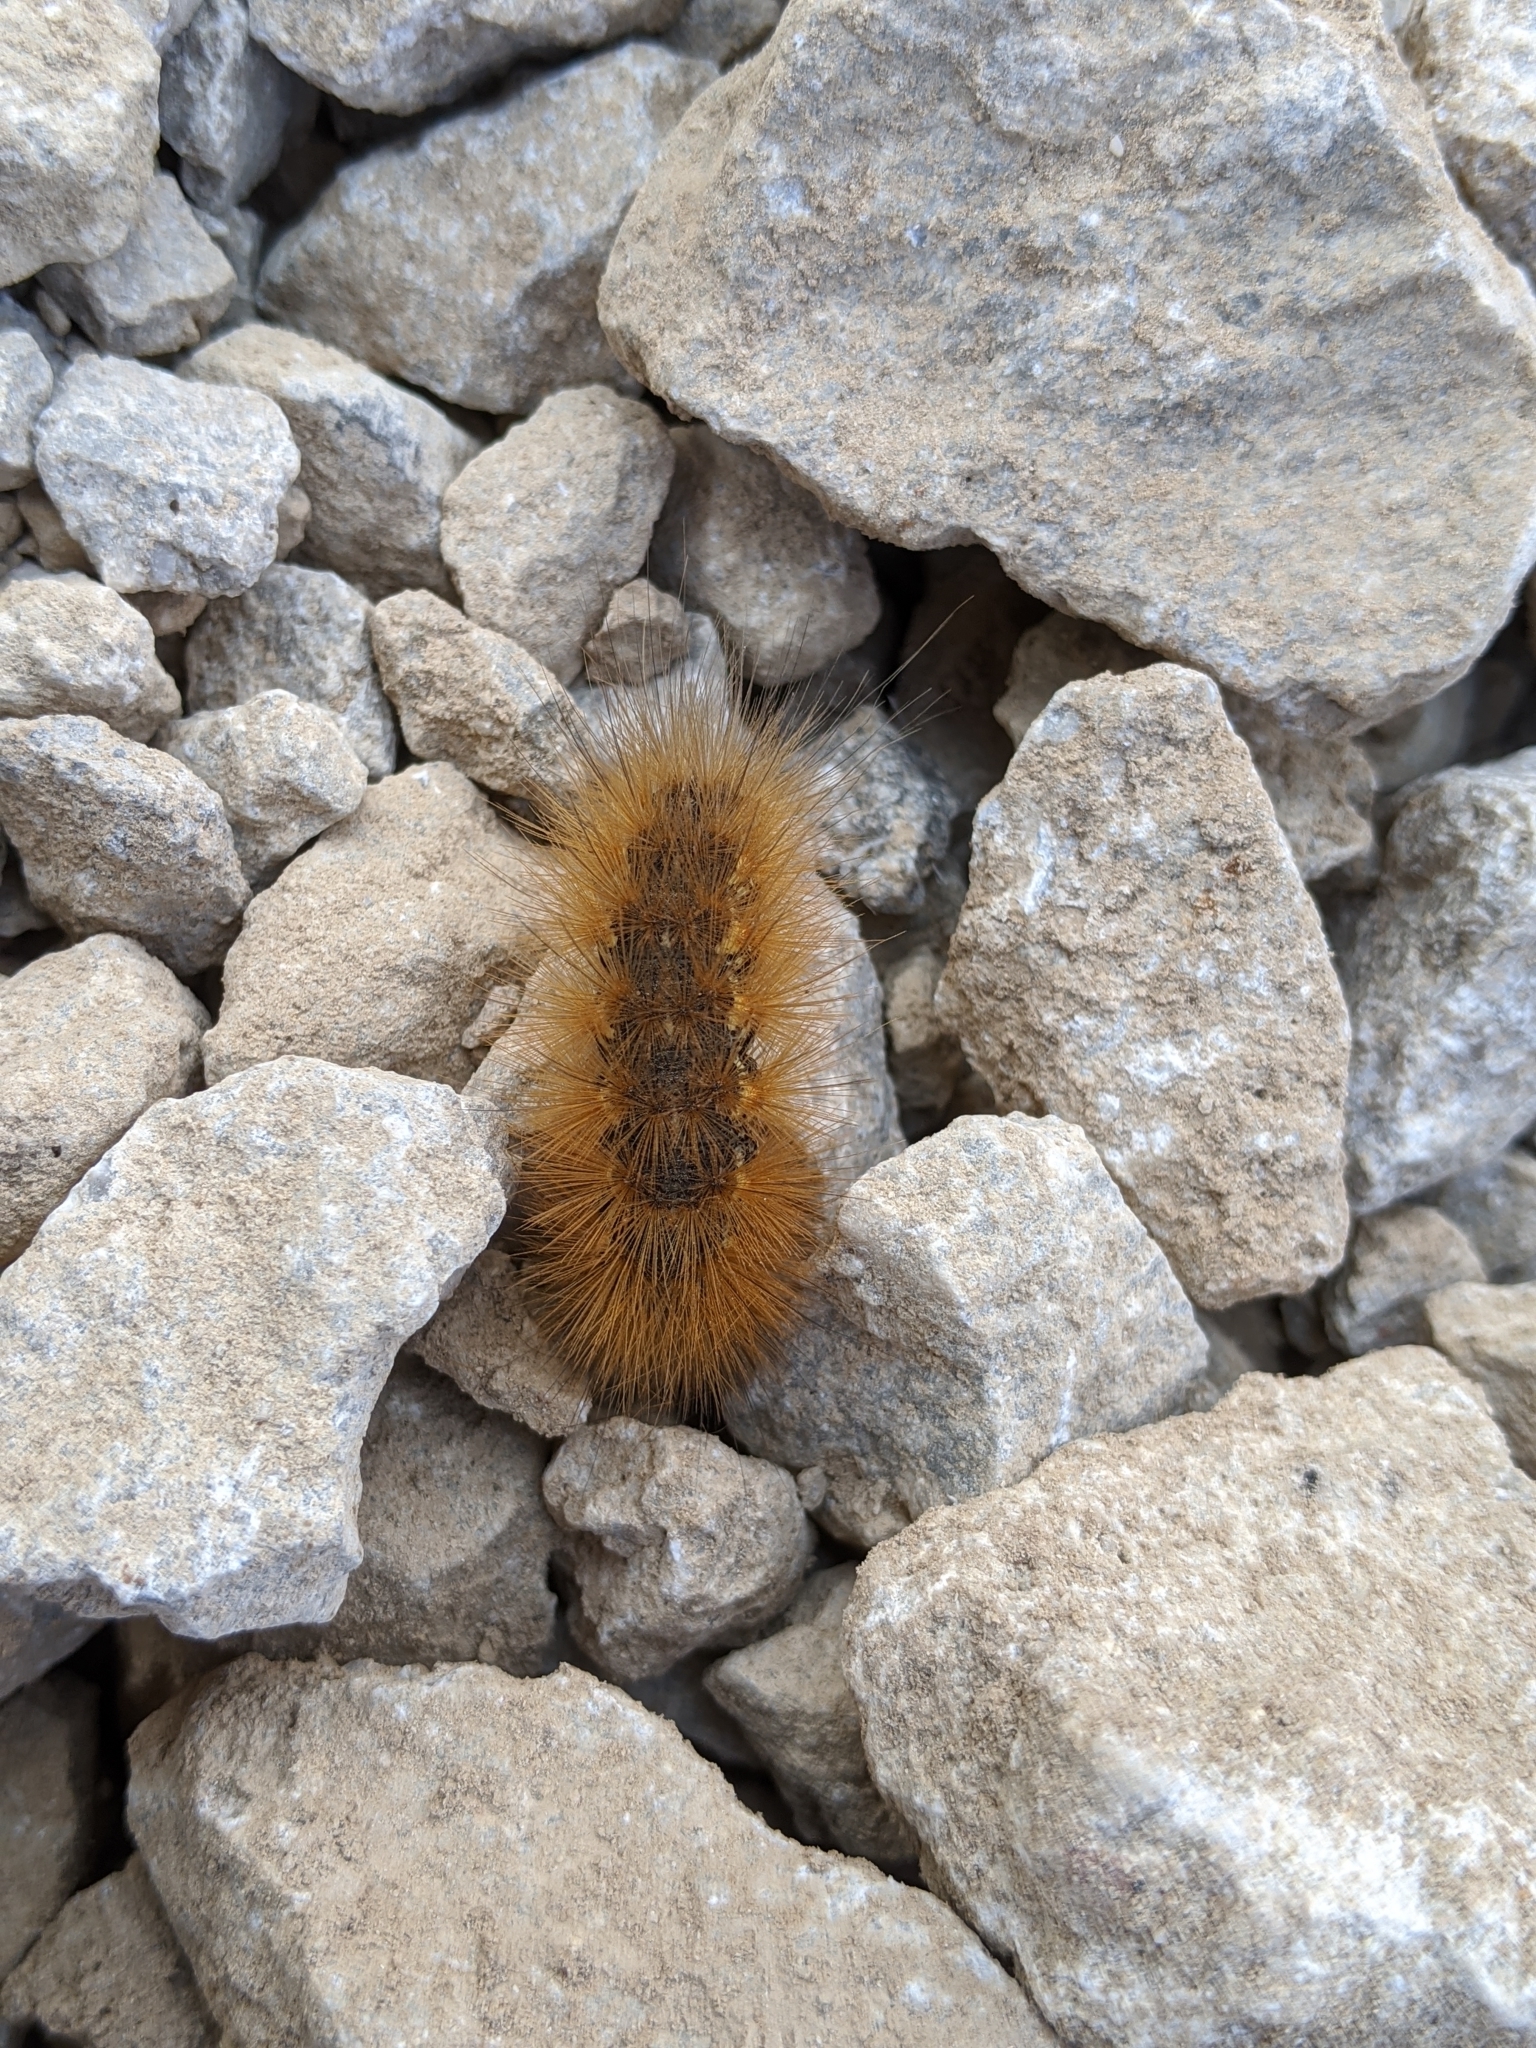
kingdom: Animalia
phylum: Arthropoda
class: Insecta
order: Lepidoptera
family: Erebidae
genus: Estigmene
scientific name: Estigmene acrea
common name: Salt marsh moth
